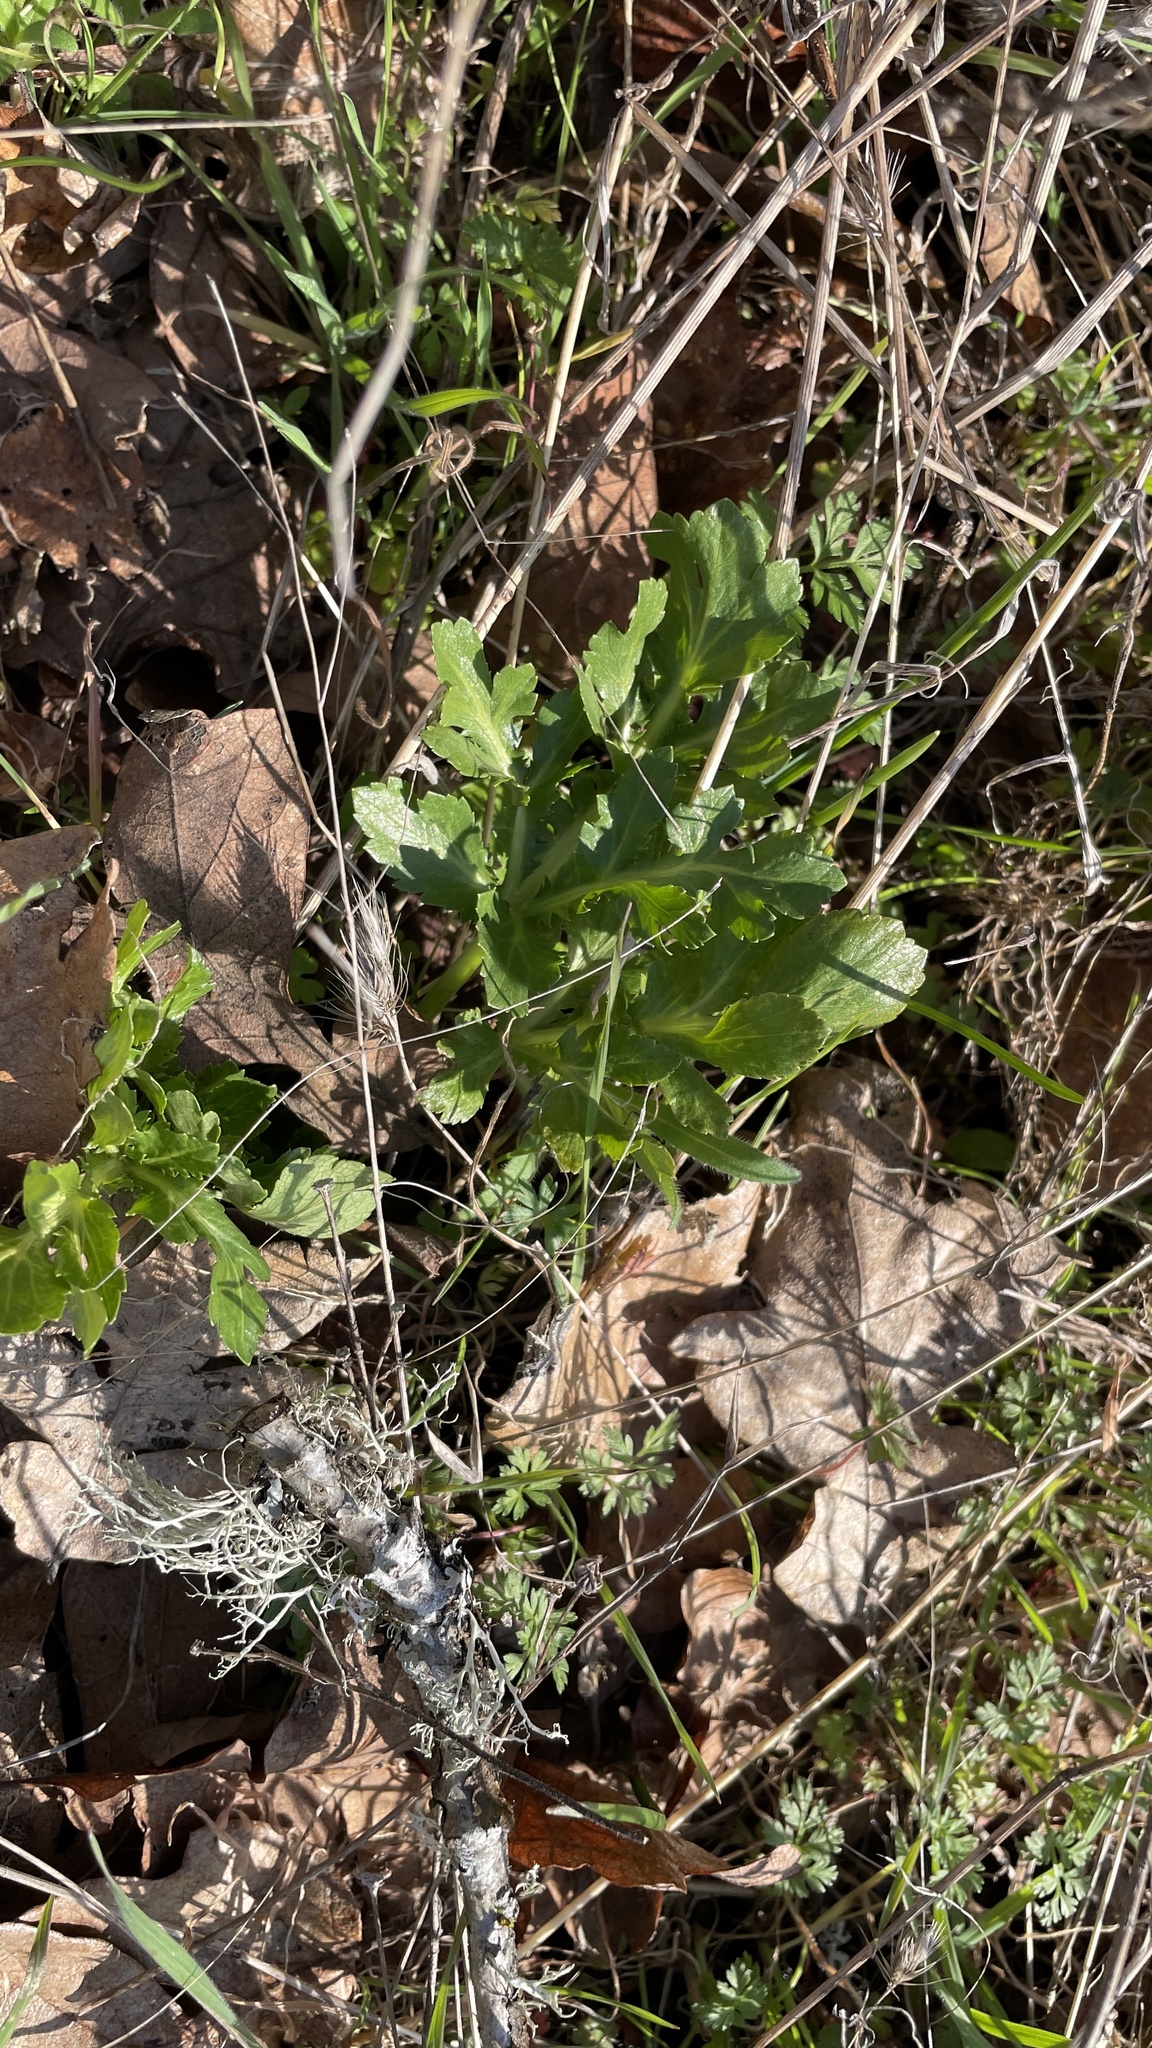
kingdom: Plantae
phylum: Tracheophyta
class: Magnoliopsida
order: Apiales
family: Apiaceae
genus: Sanicula
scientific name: Sanicula bipinnatifida
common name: Shoe-buttons
